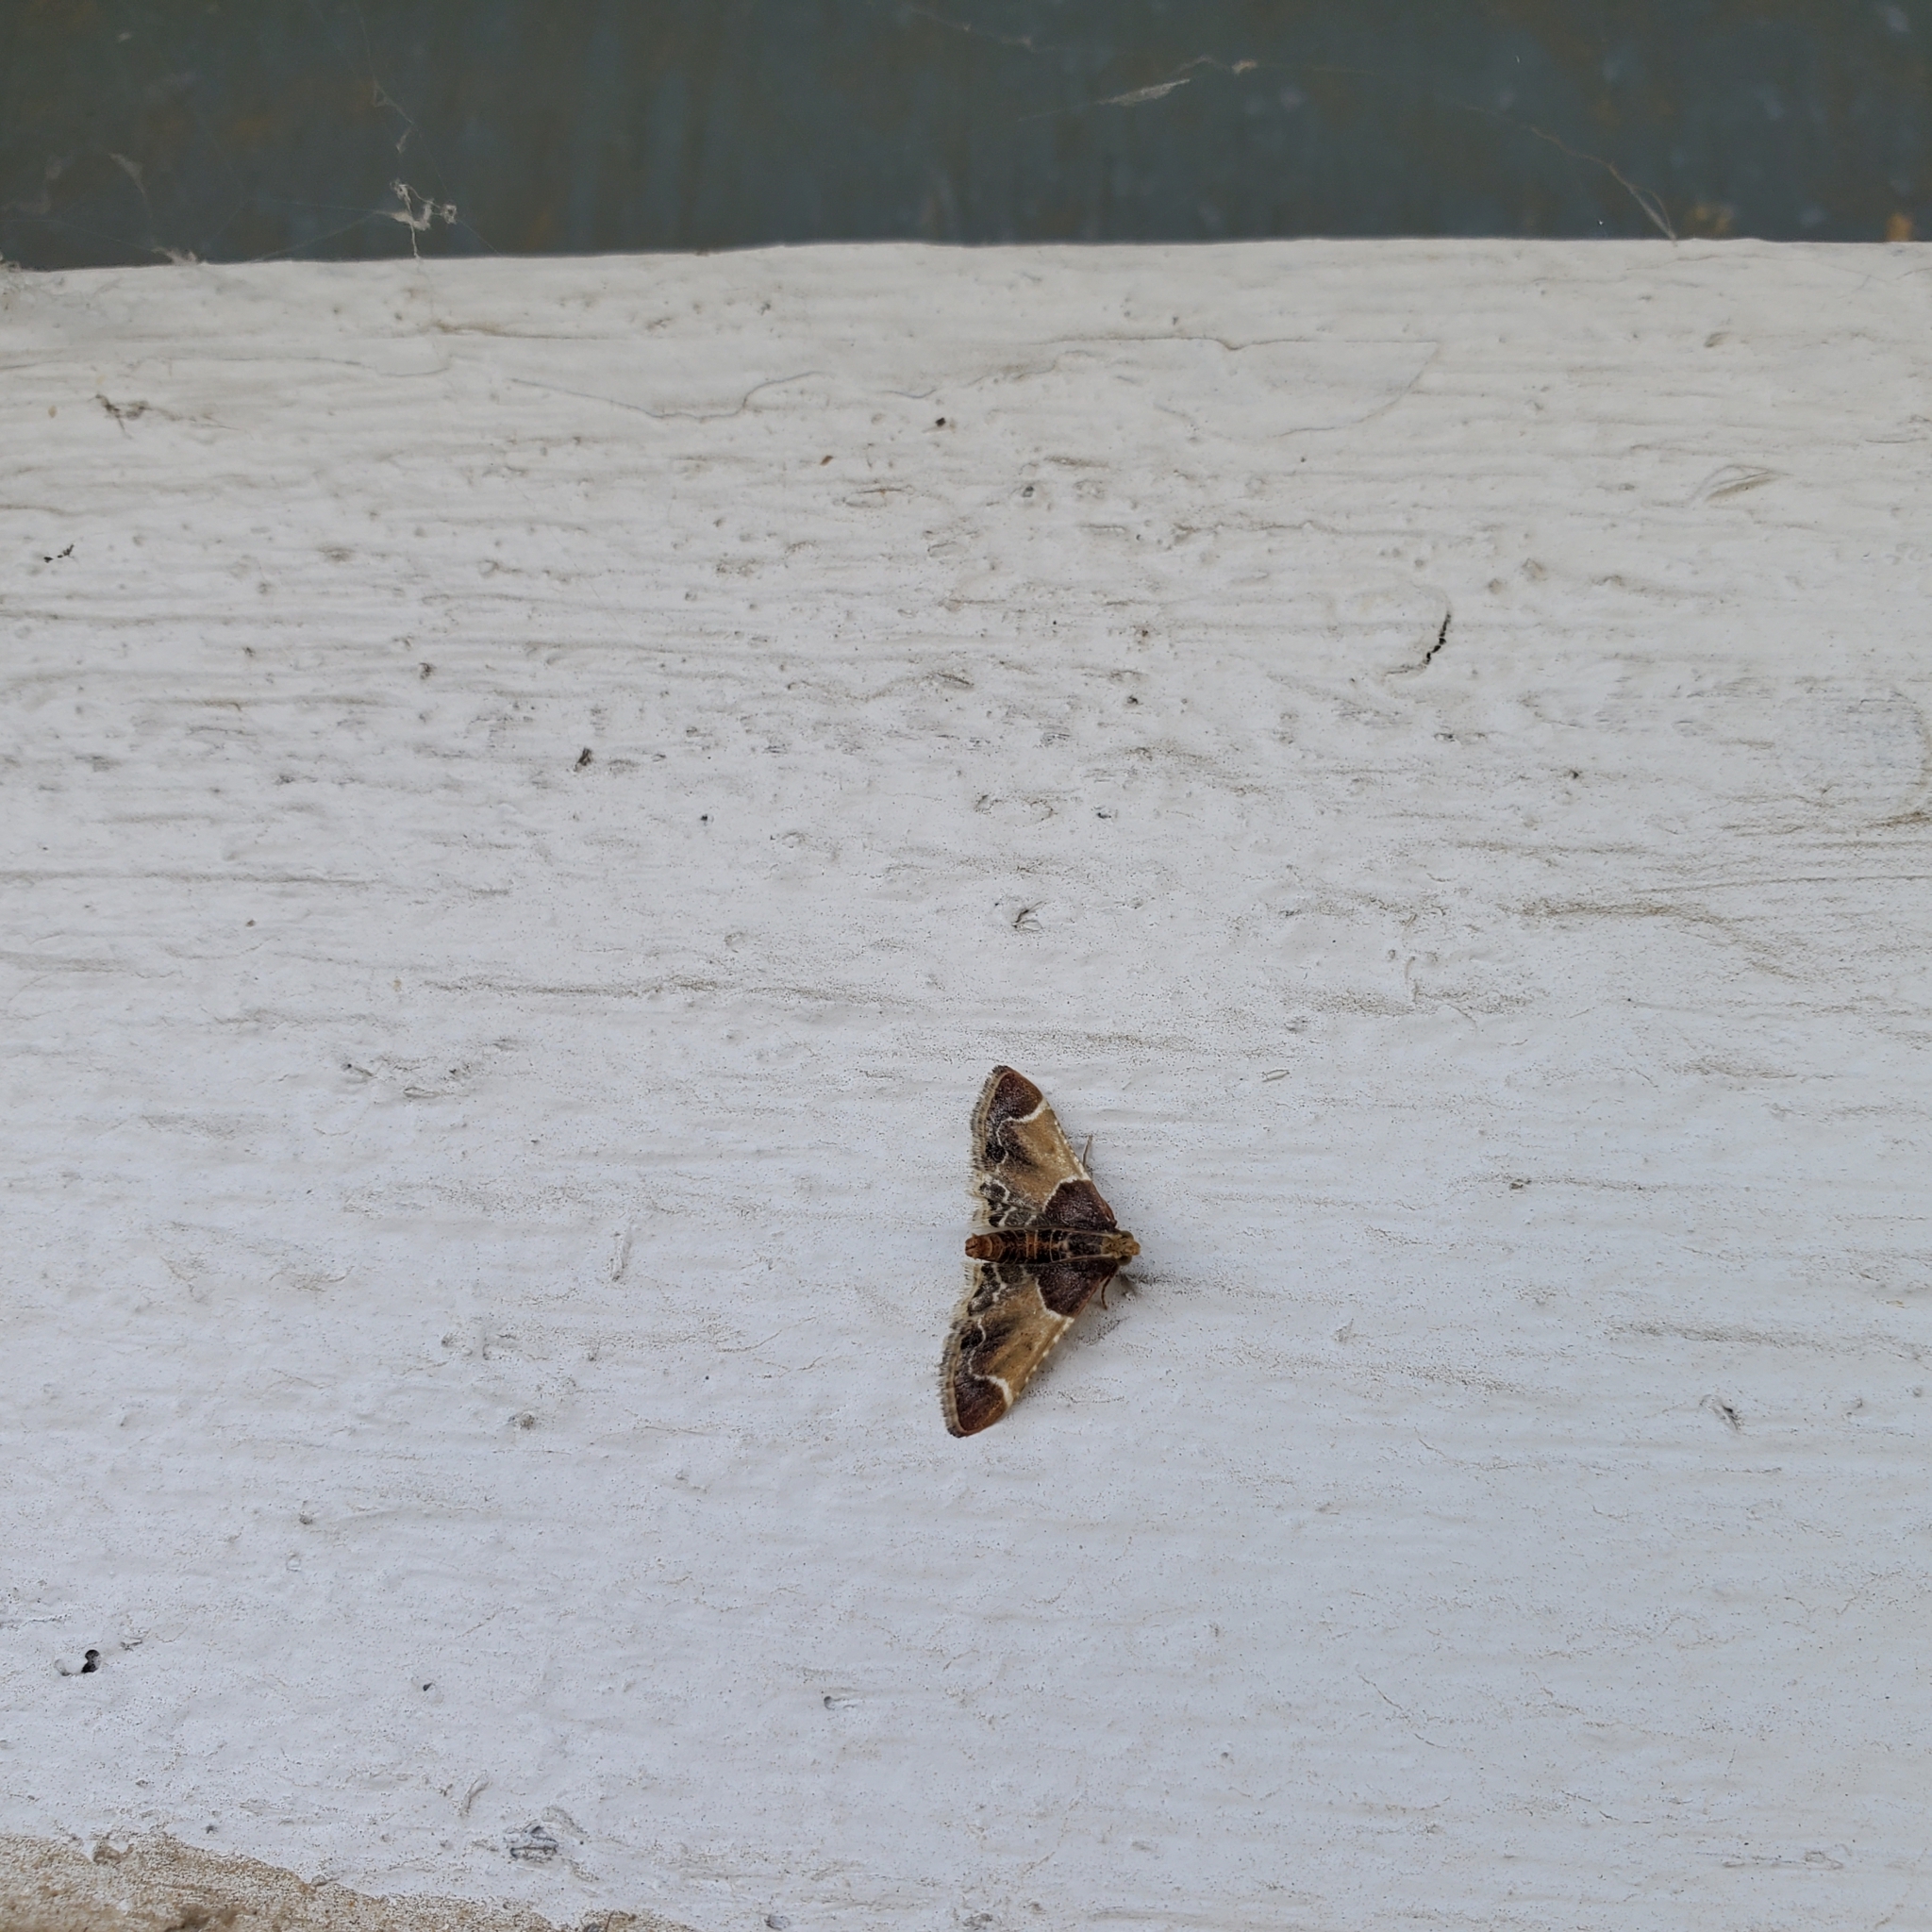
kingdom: Animalia
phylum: Arthropoda
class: Insecta
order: Lepidoptera
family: Pyralidae
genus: Pyralis
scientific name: Pyralis farinalis
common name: Meal moth
